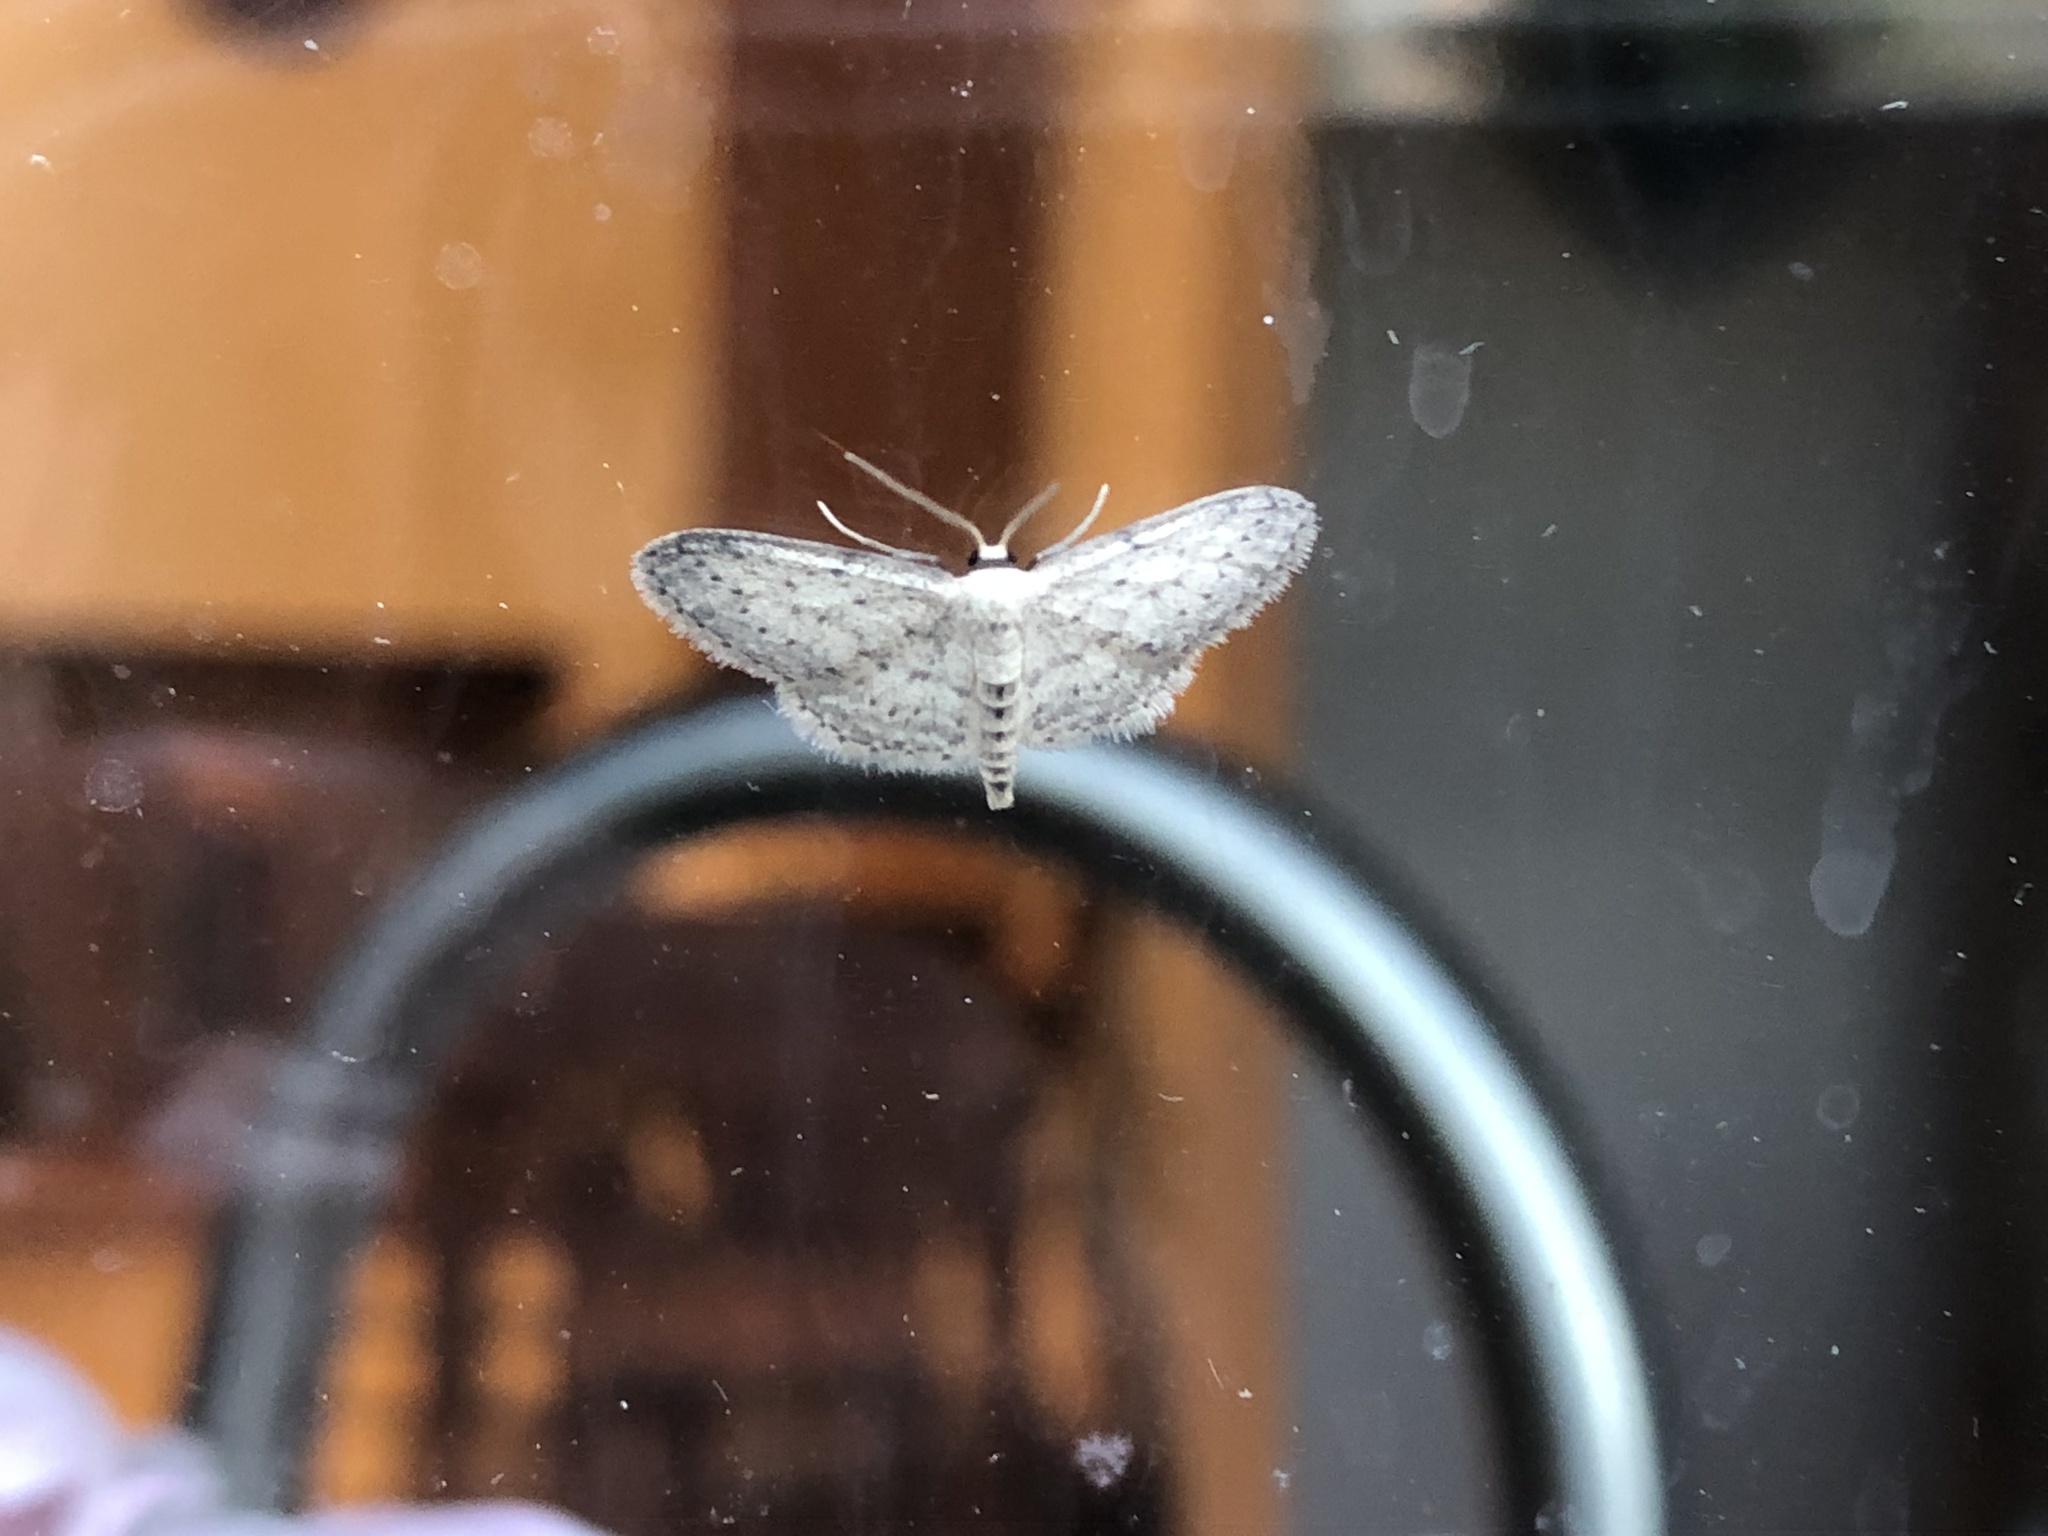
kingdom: Animalia
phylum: Arthropoda
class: Insecta
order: Lepidoptera
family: Geometridae
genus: Idaea
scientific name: Idaea seriata
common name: Small dusty wave
